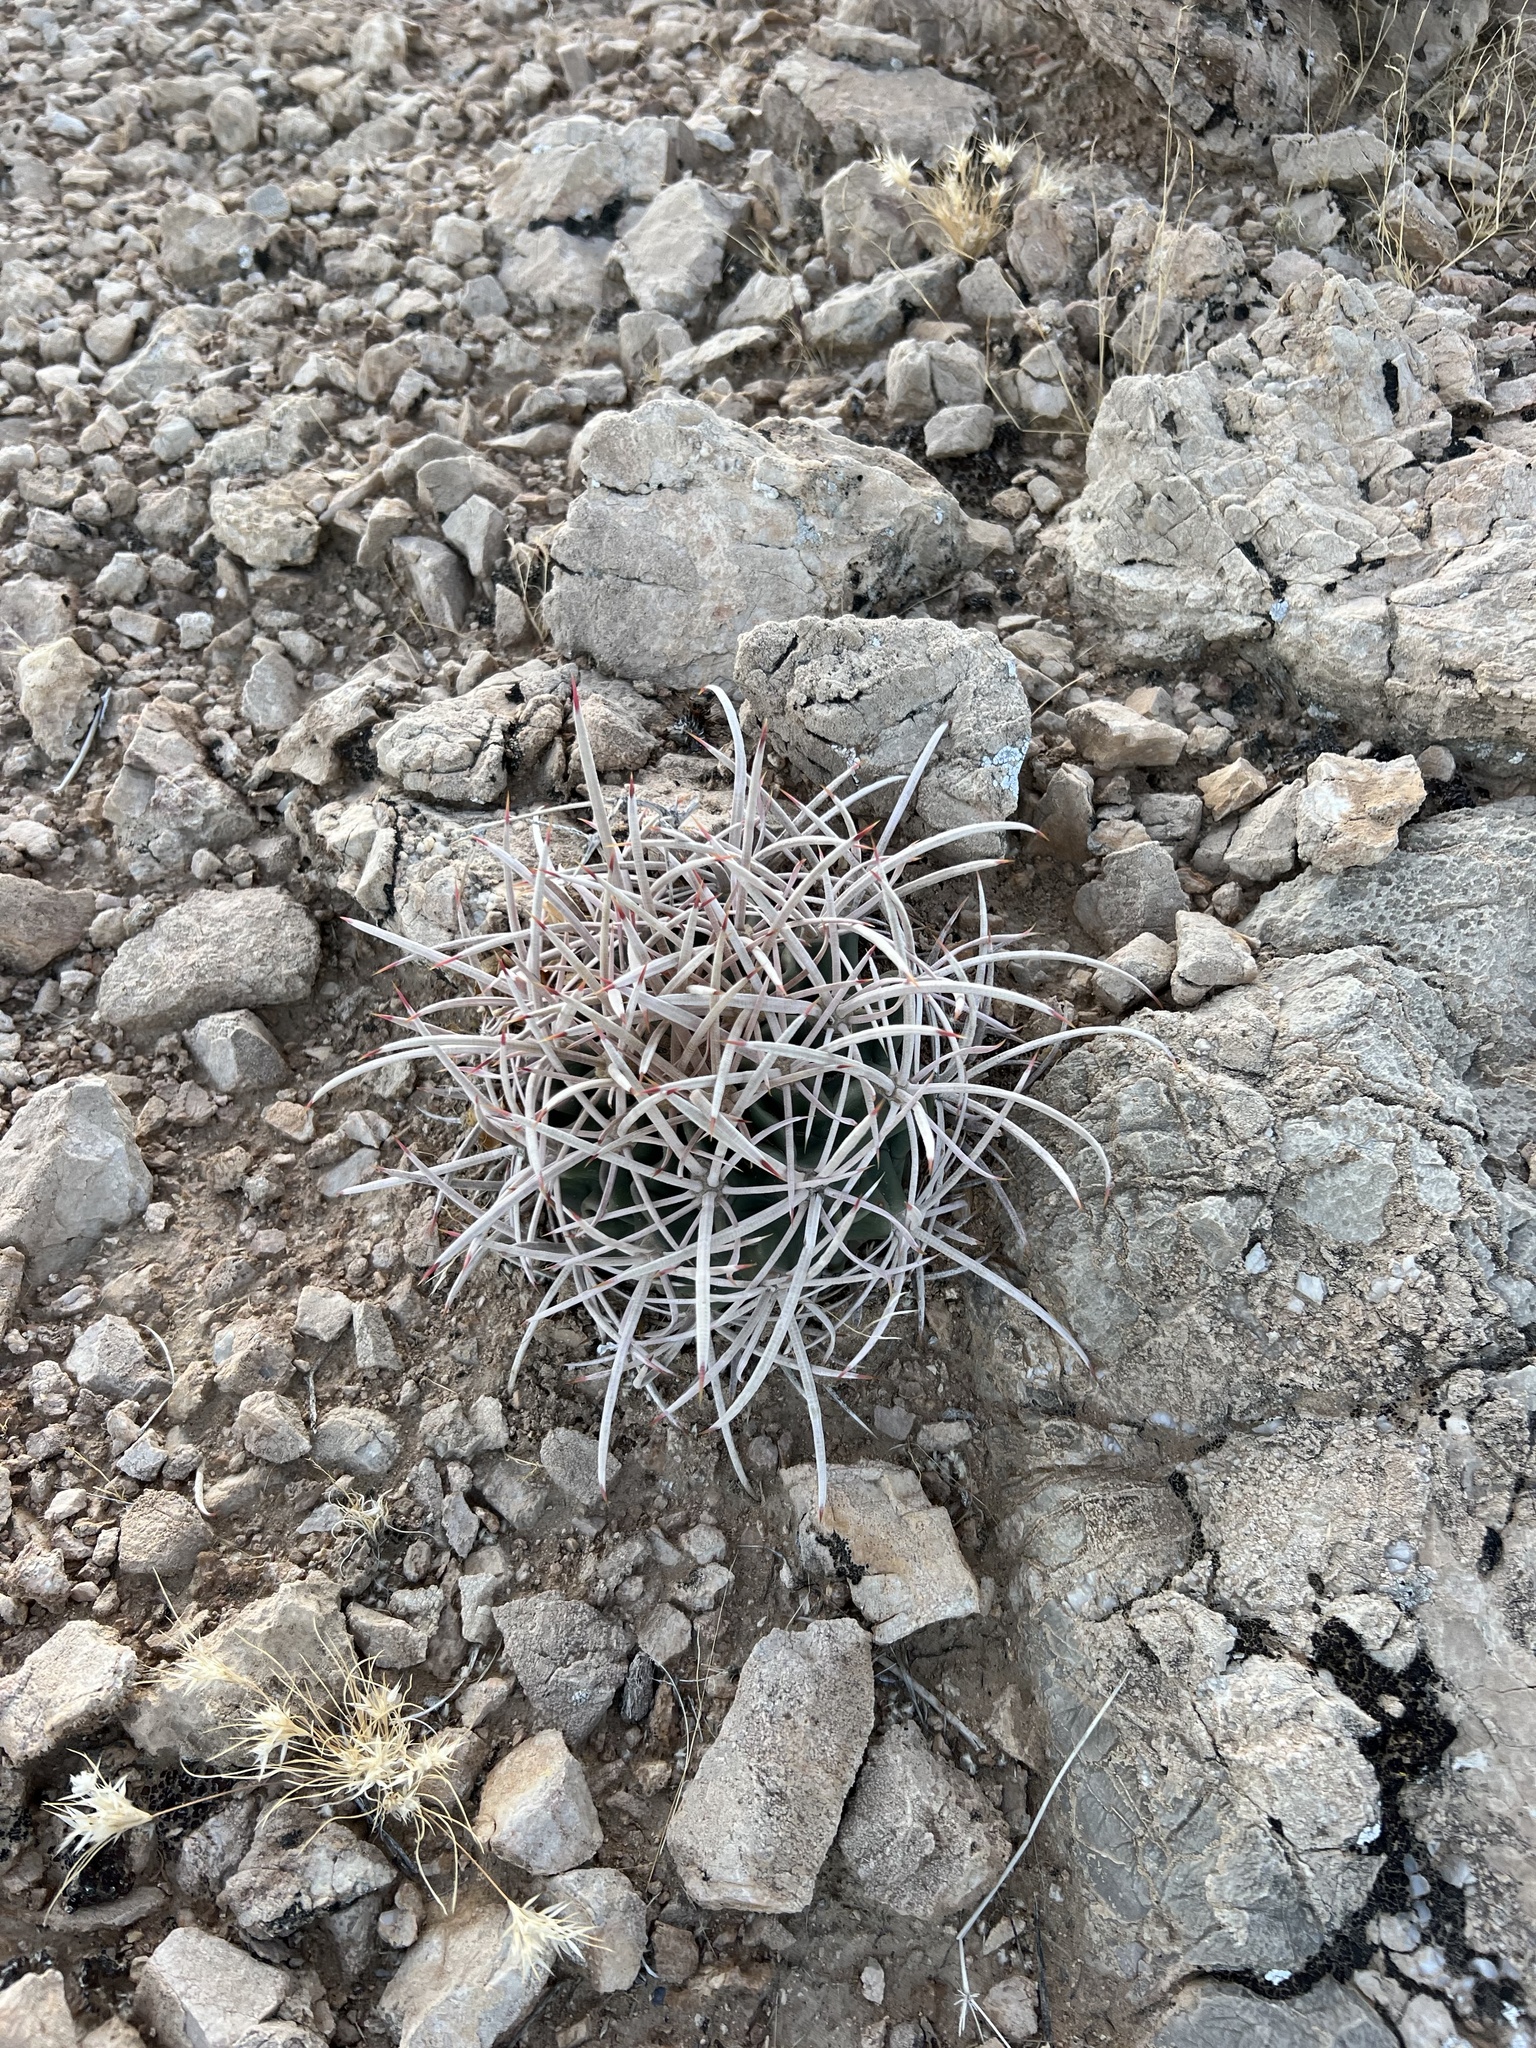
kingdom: Plantae
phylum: Tracheophyta
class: Magnoliopsida
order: Caryophyllales
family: Cactaceae
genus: Echinocactus
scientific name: Echinocactus polycephalus
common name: Cottontop cactus
